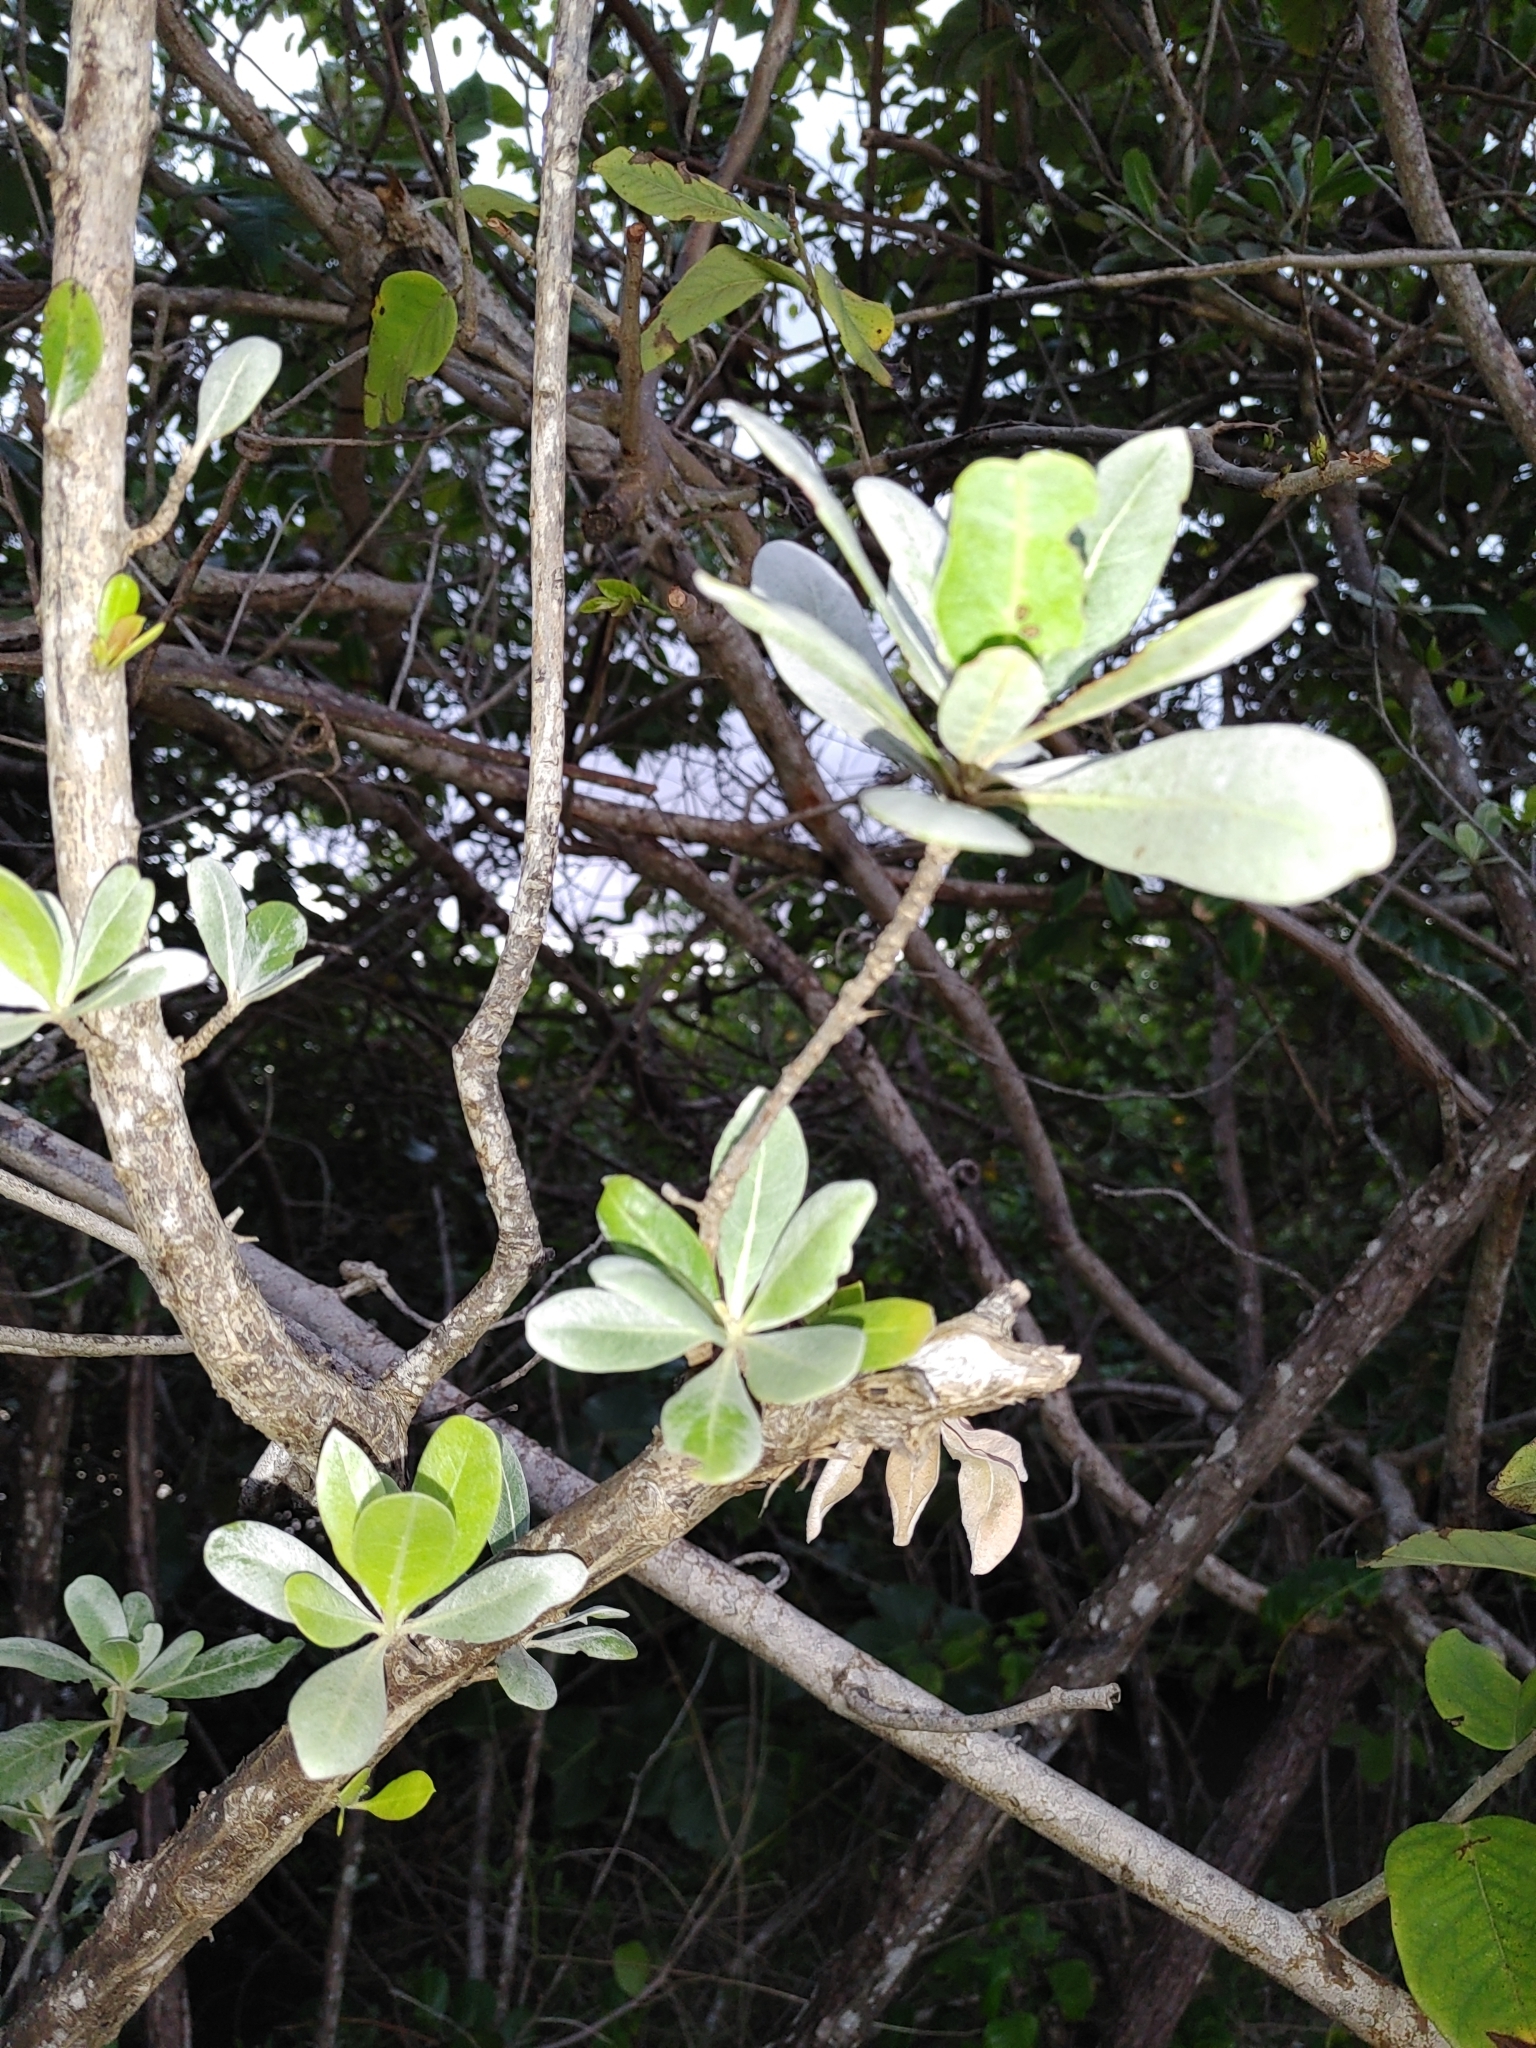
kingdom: Plantae
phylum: Tracheophyta
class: Magnoliopsida
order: Myrtales
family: Combretaceae
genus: Conocarpus
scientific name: Conocarpus erectus
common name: Button mangrove
